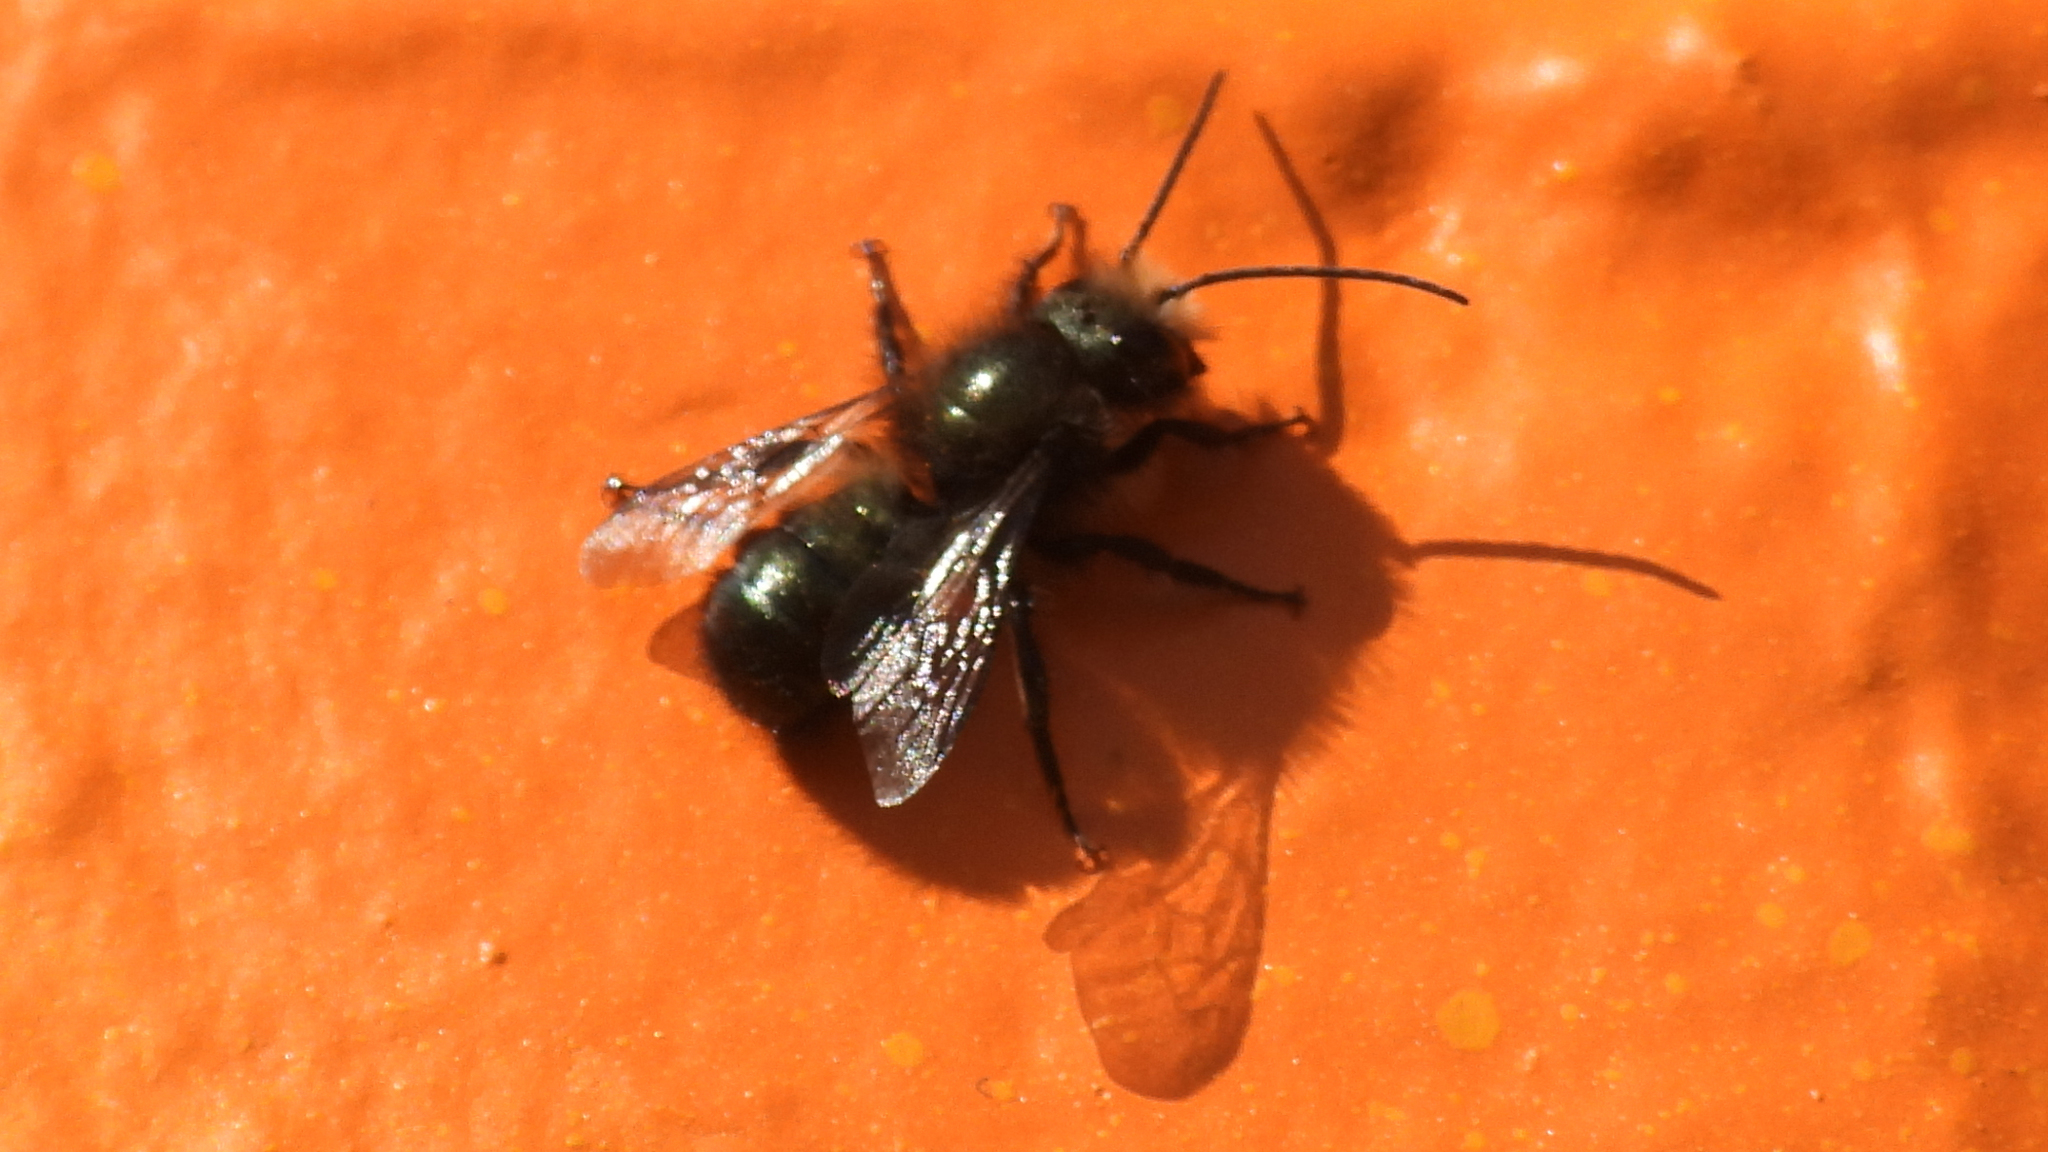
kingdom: Animalia
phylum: Arthropoda
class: Insecta
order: Hymenoptera
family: Megachilidae
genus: Osmia
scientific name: Osmia lignaria
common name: Blue orchard bee
